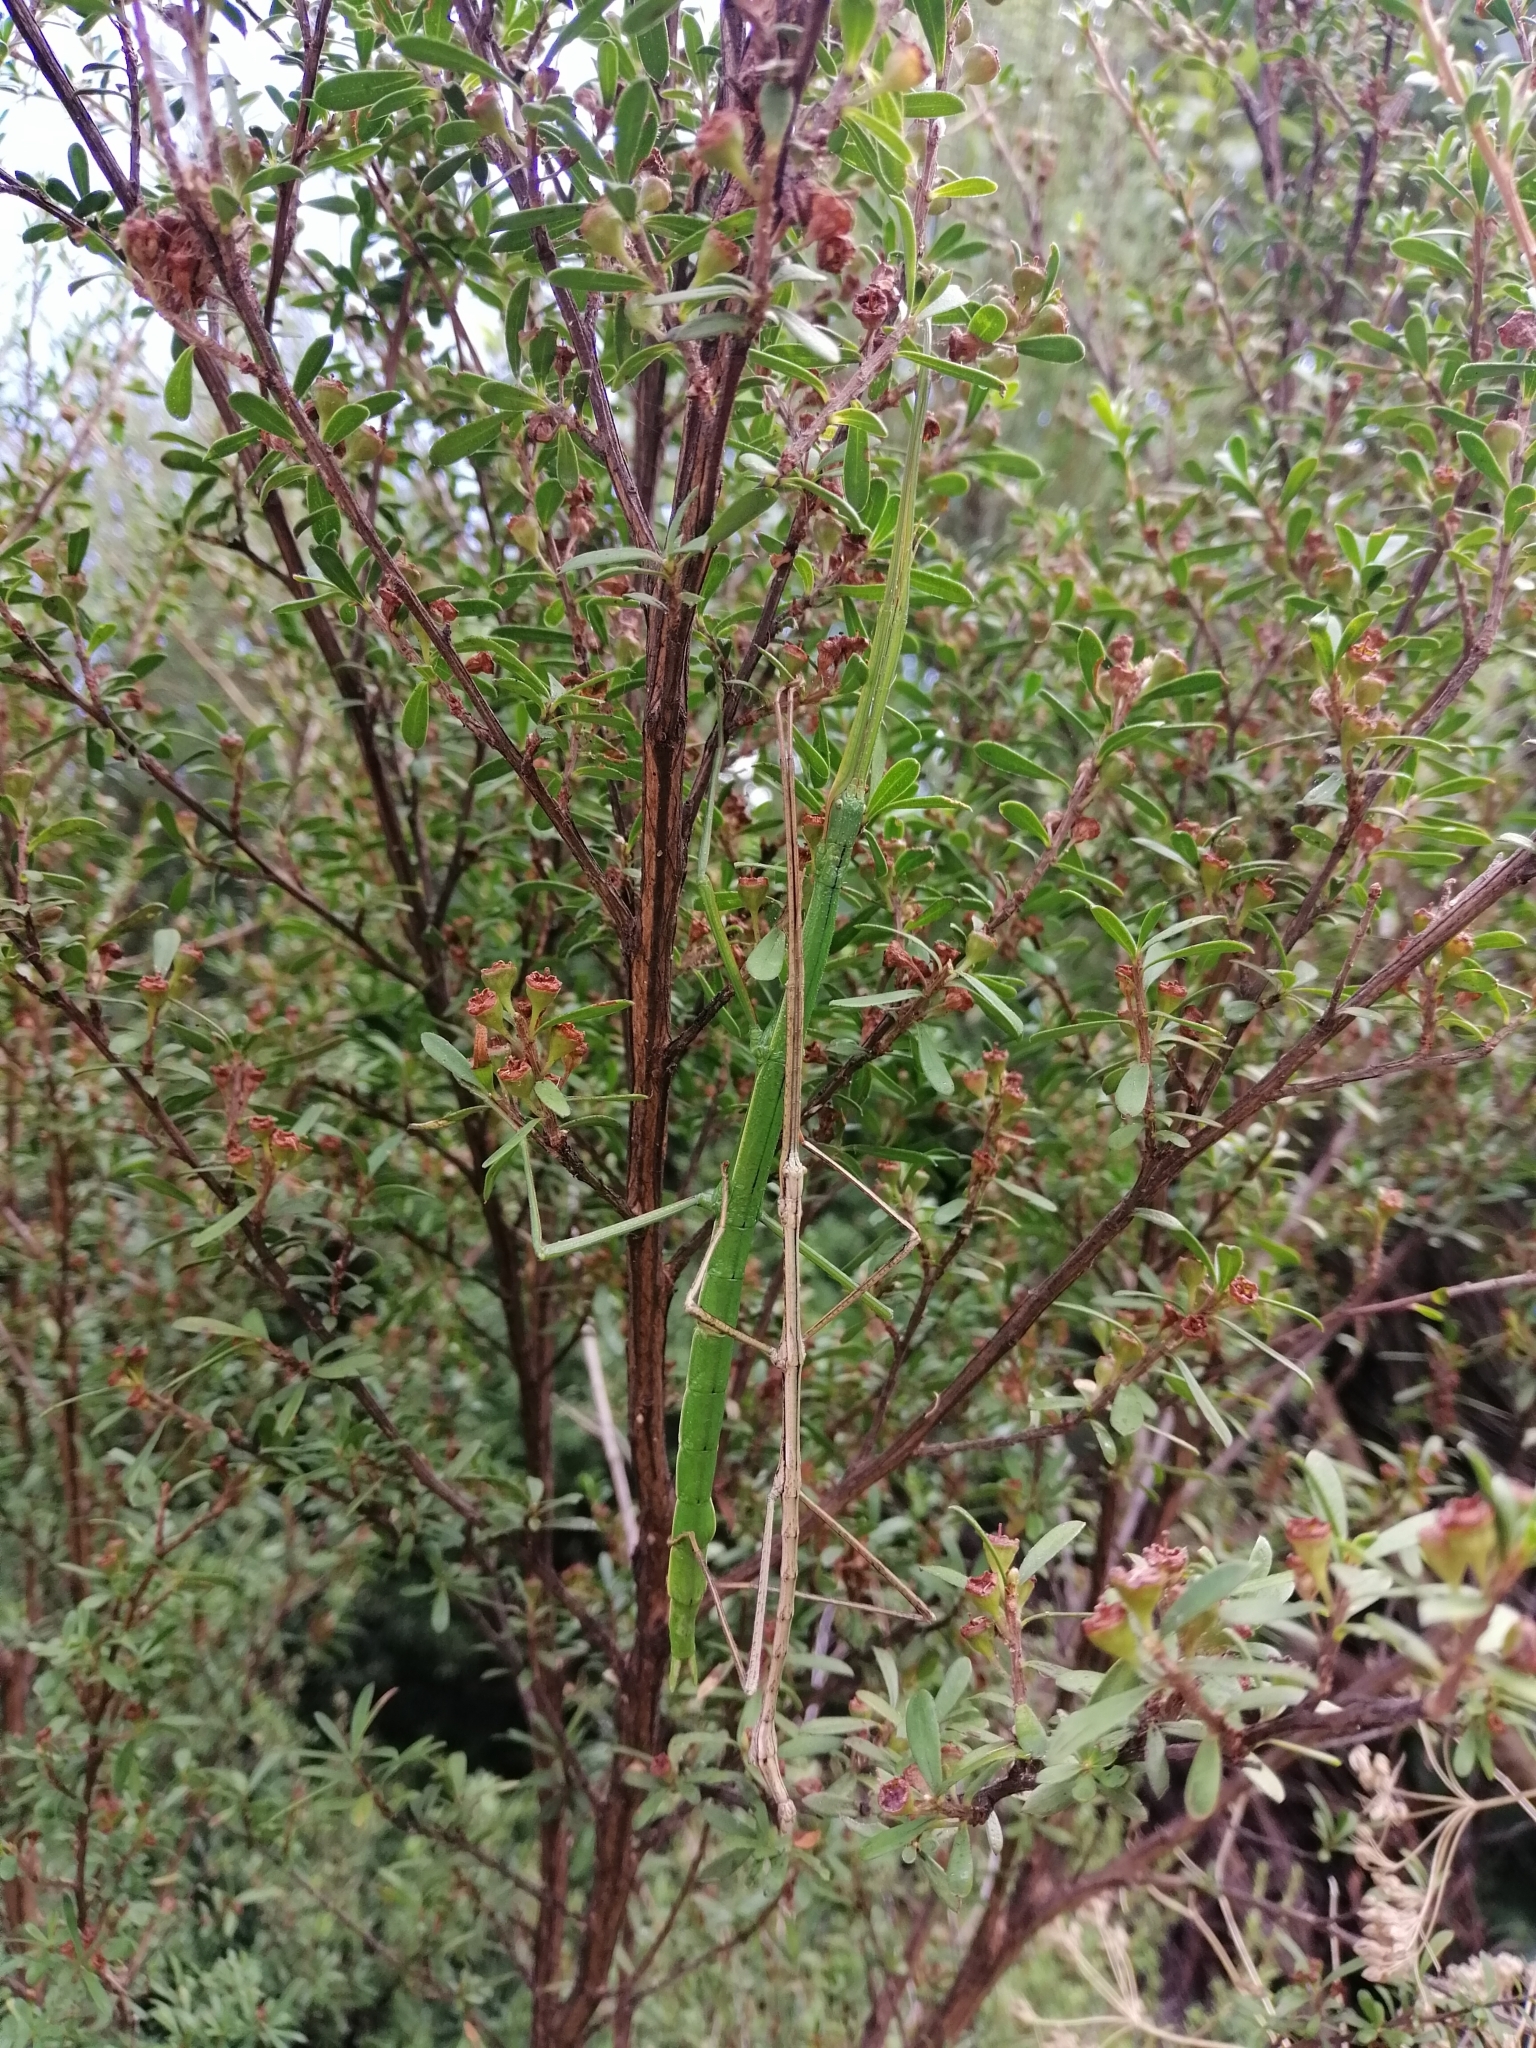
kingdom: Animalia
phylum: Arthropoda
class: Insecta
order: Phasmida
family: Phasmatidae
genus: Clitarchus
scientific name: Clitarchus hookeri
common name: Smooth stick insect
